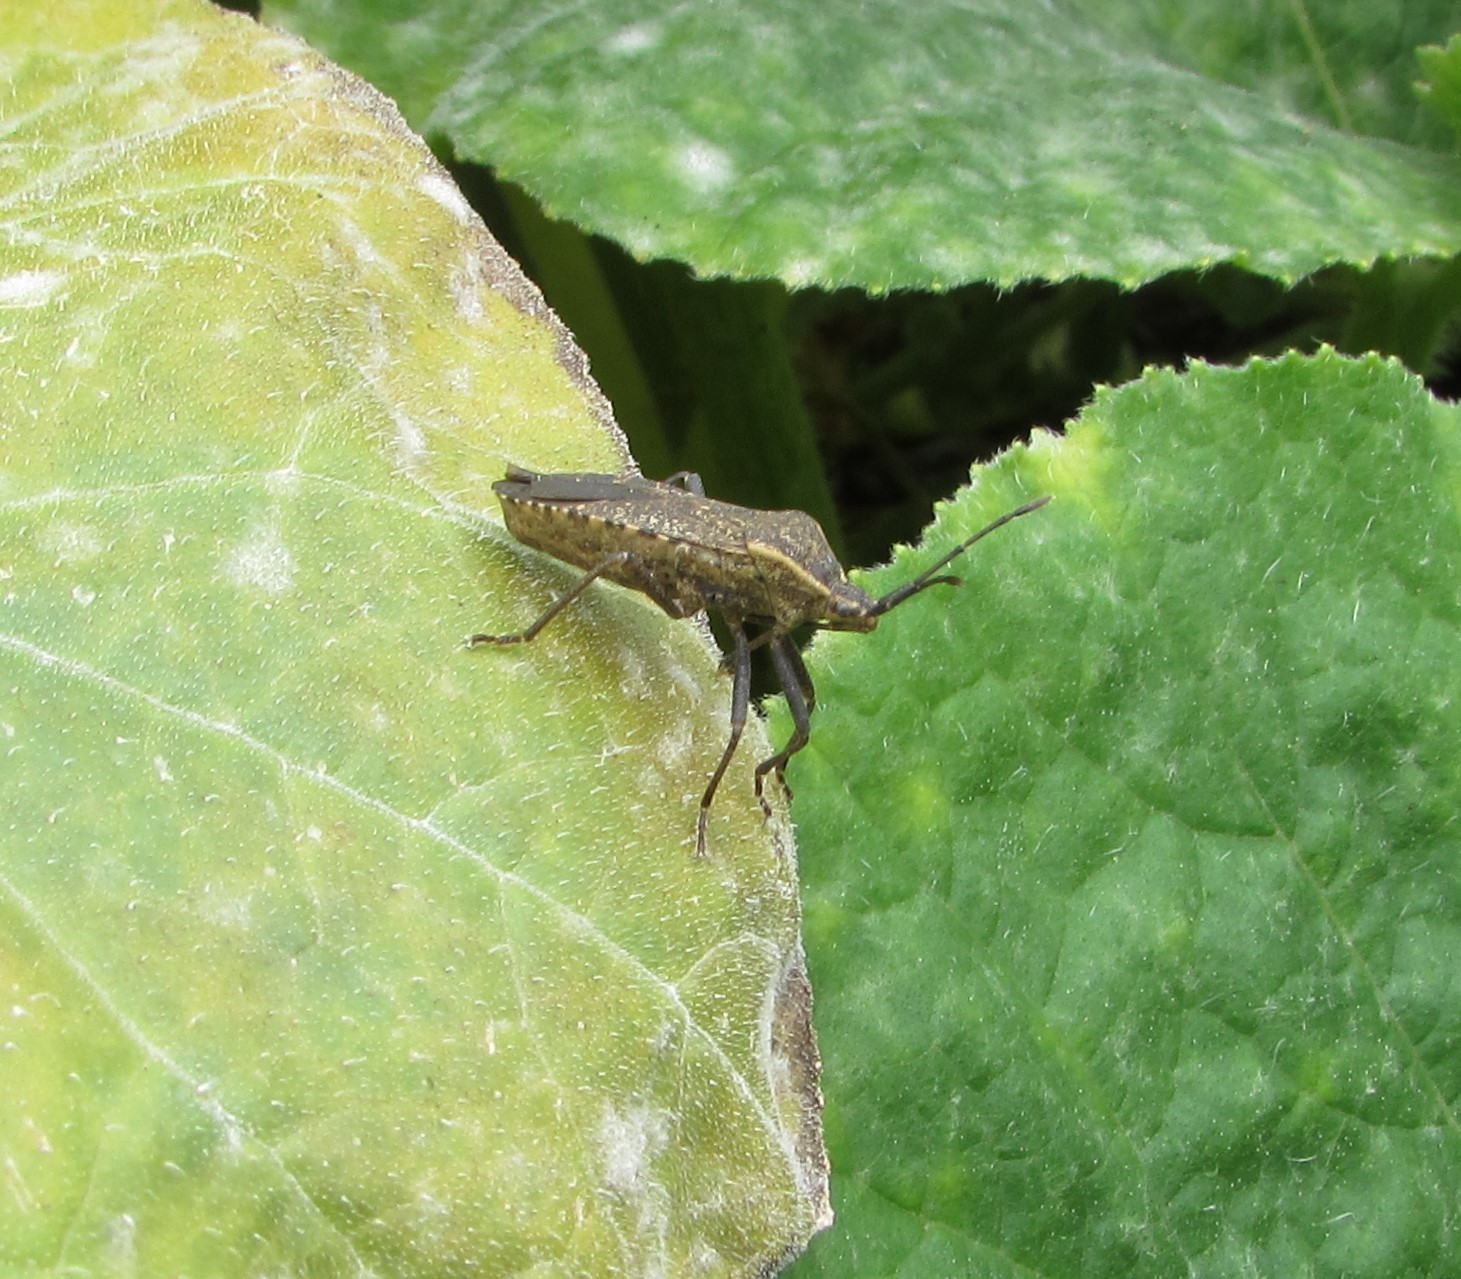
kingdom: Animalia
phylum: Arthropoda
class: Insecta
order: Hemiptera
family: Coreidae
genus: Anasa
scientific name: Anasa tristis
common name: Squash bug
